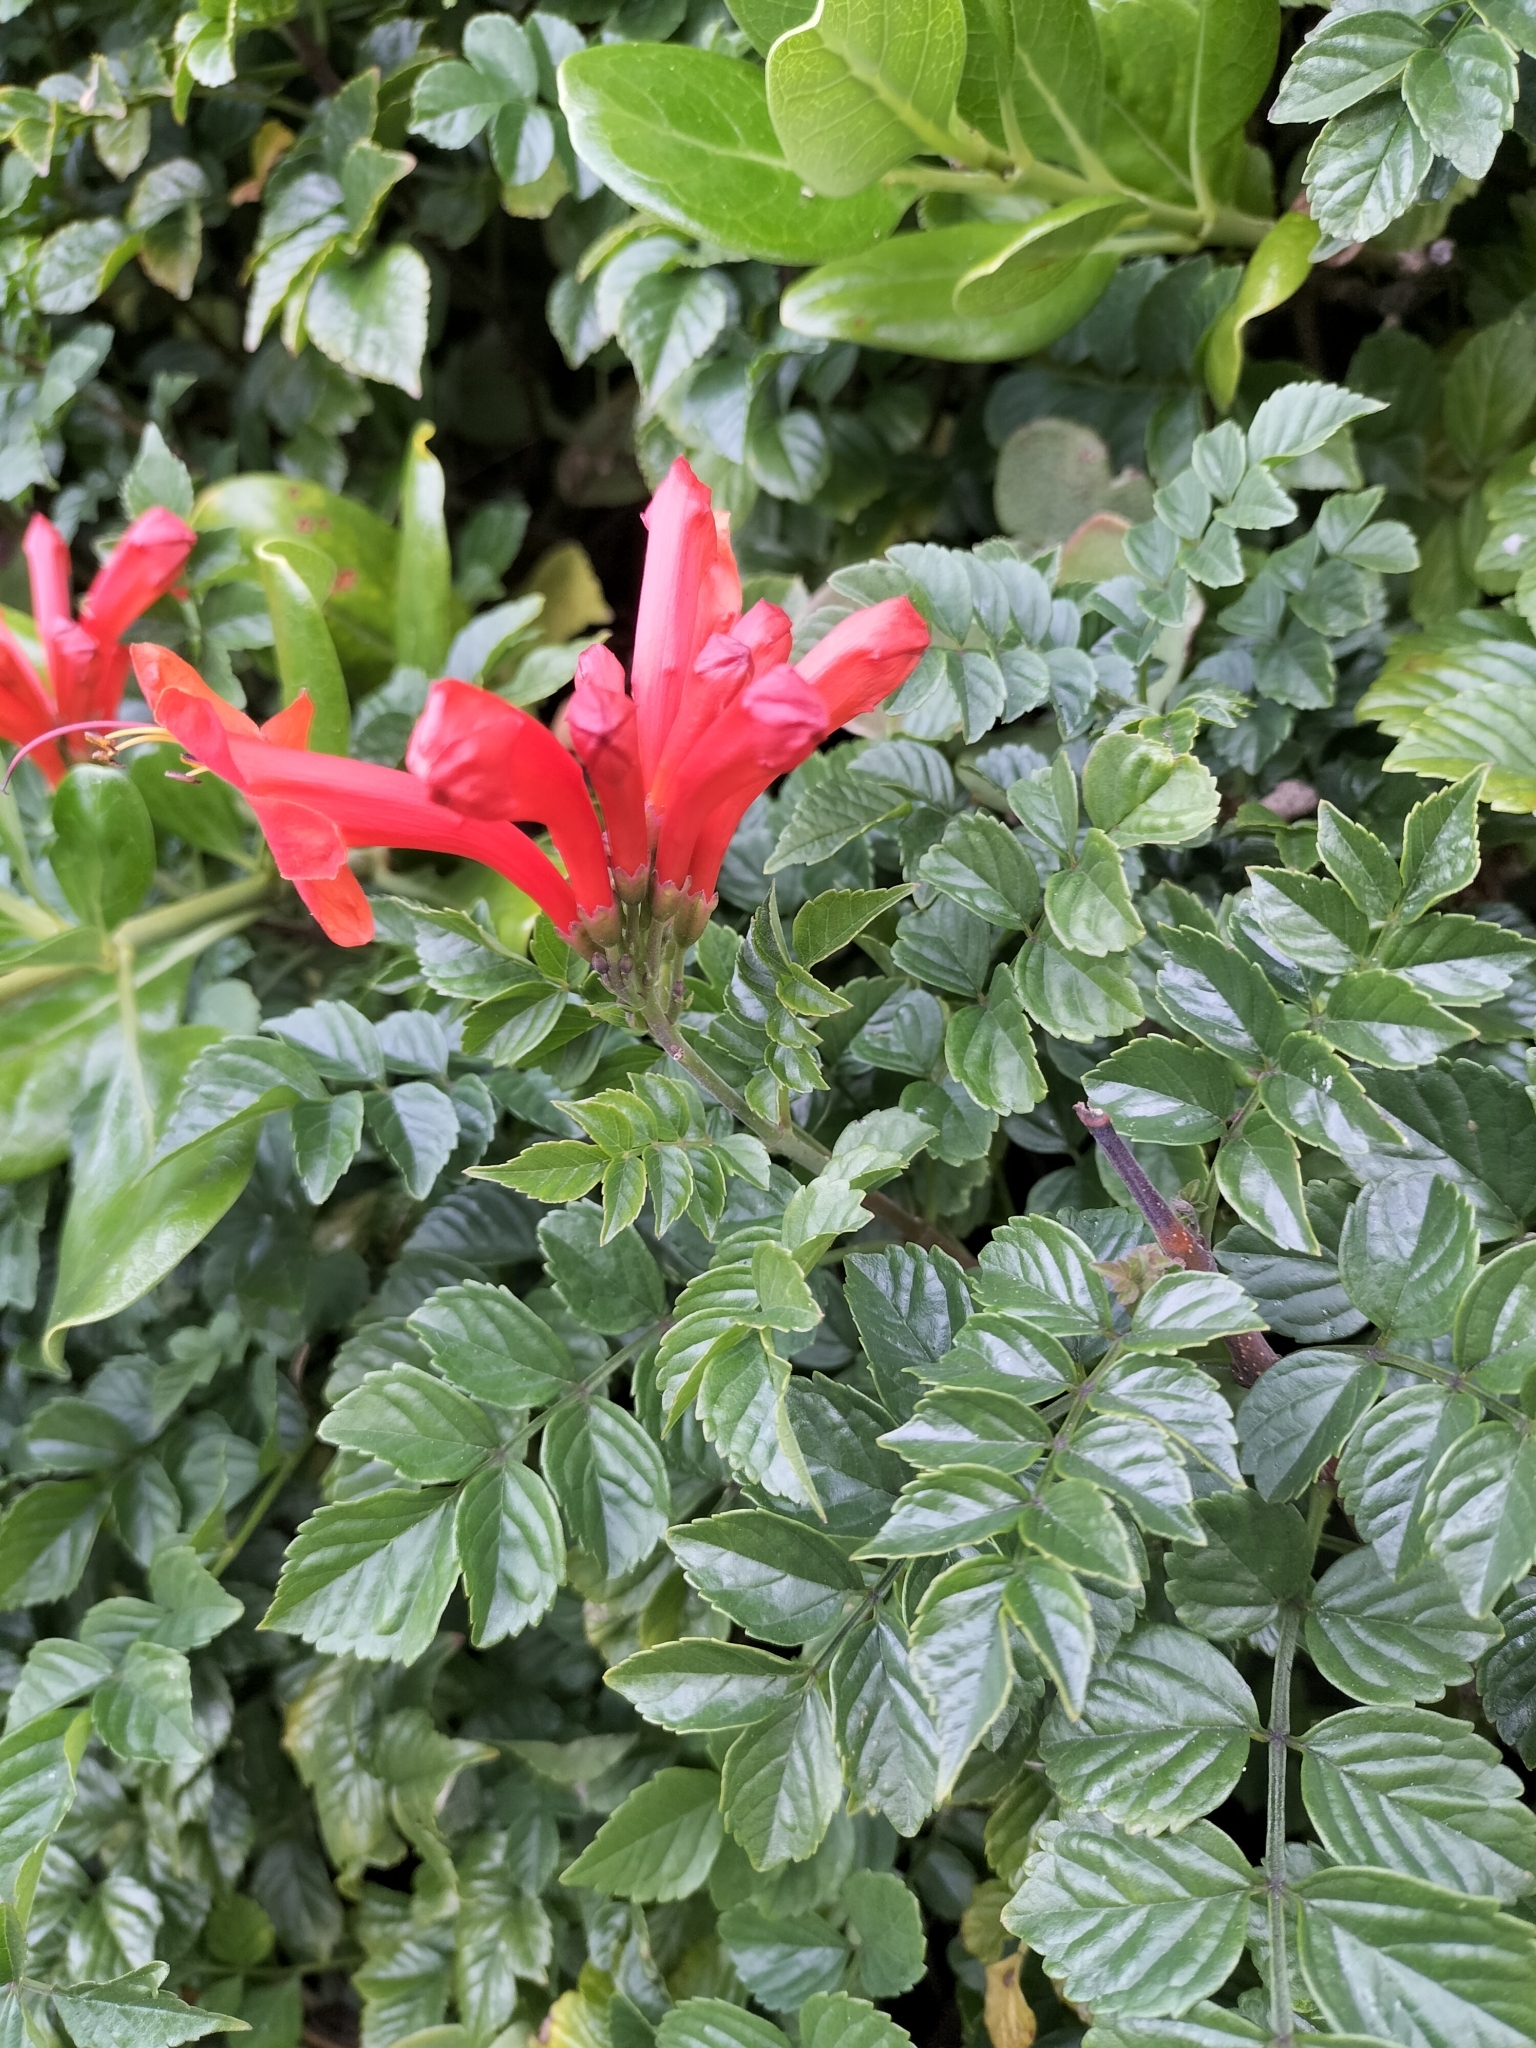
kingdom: Plantae
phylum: Tracheophyta
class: Magnoliopsida
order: Lamiales
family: Bignoniaceae
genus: Tecomaria
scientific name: Tecomaria capensis
